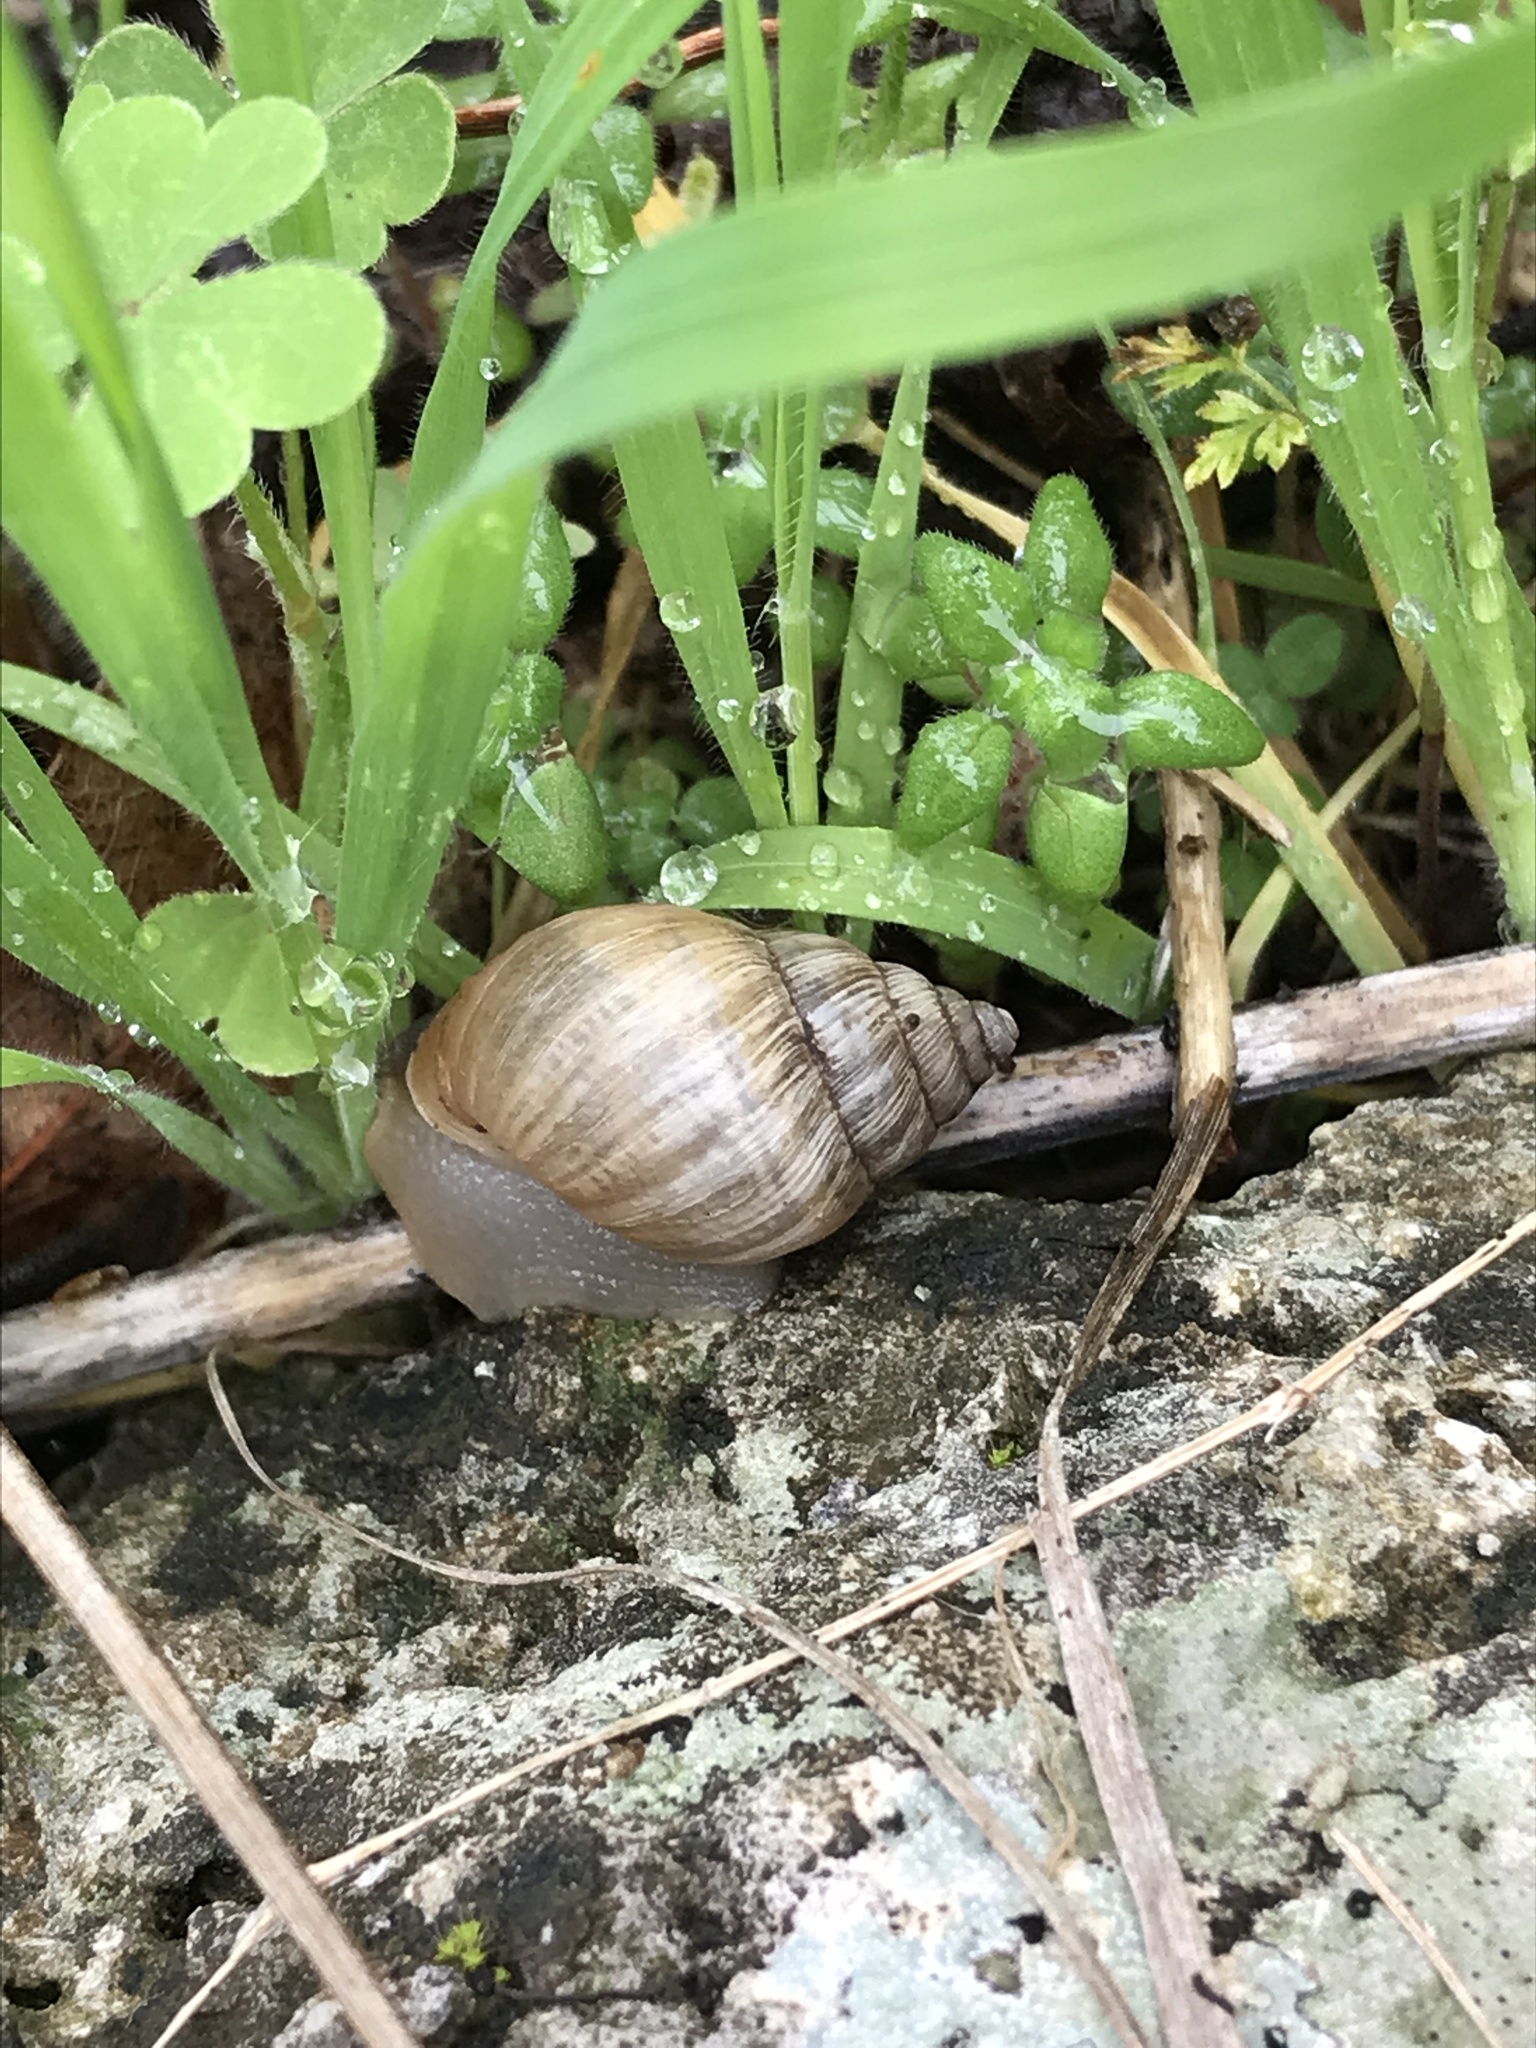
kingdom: Animalia
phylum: Mollusca
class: Gastropoda
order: Stylommatophora
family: Bulimulidae
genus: Rabdotus
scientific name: Rabdotus dealbatus
